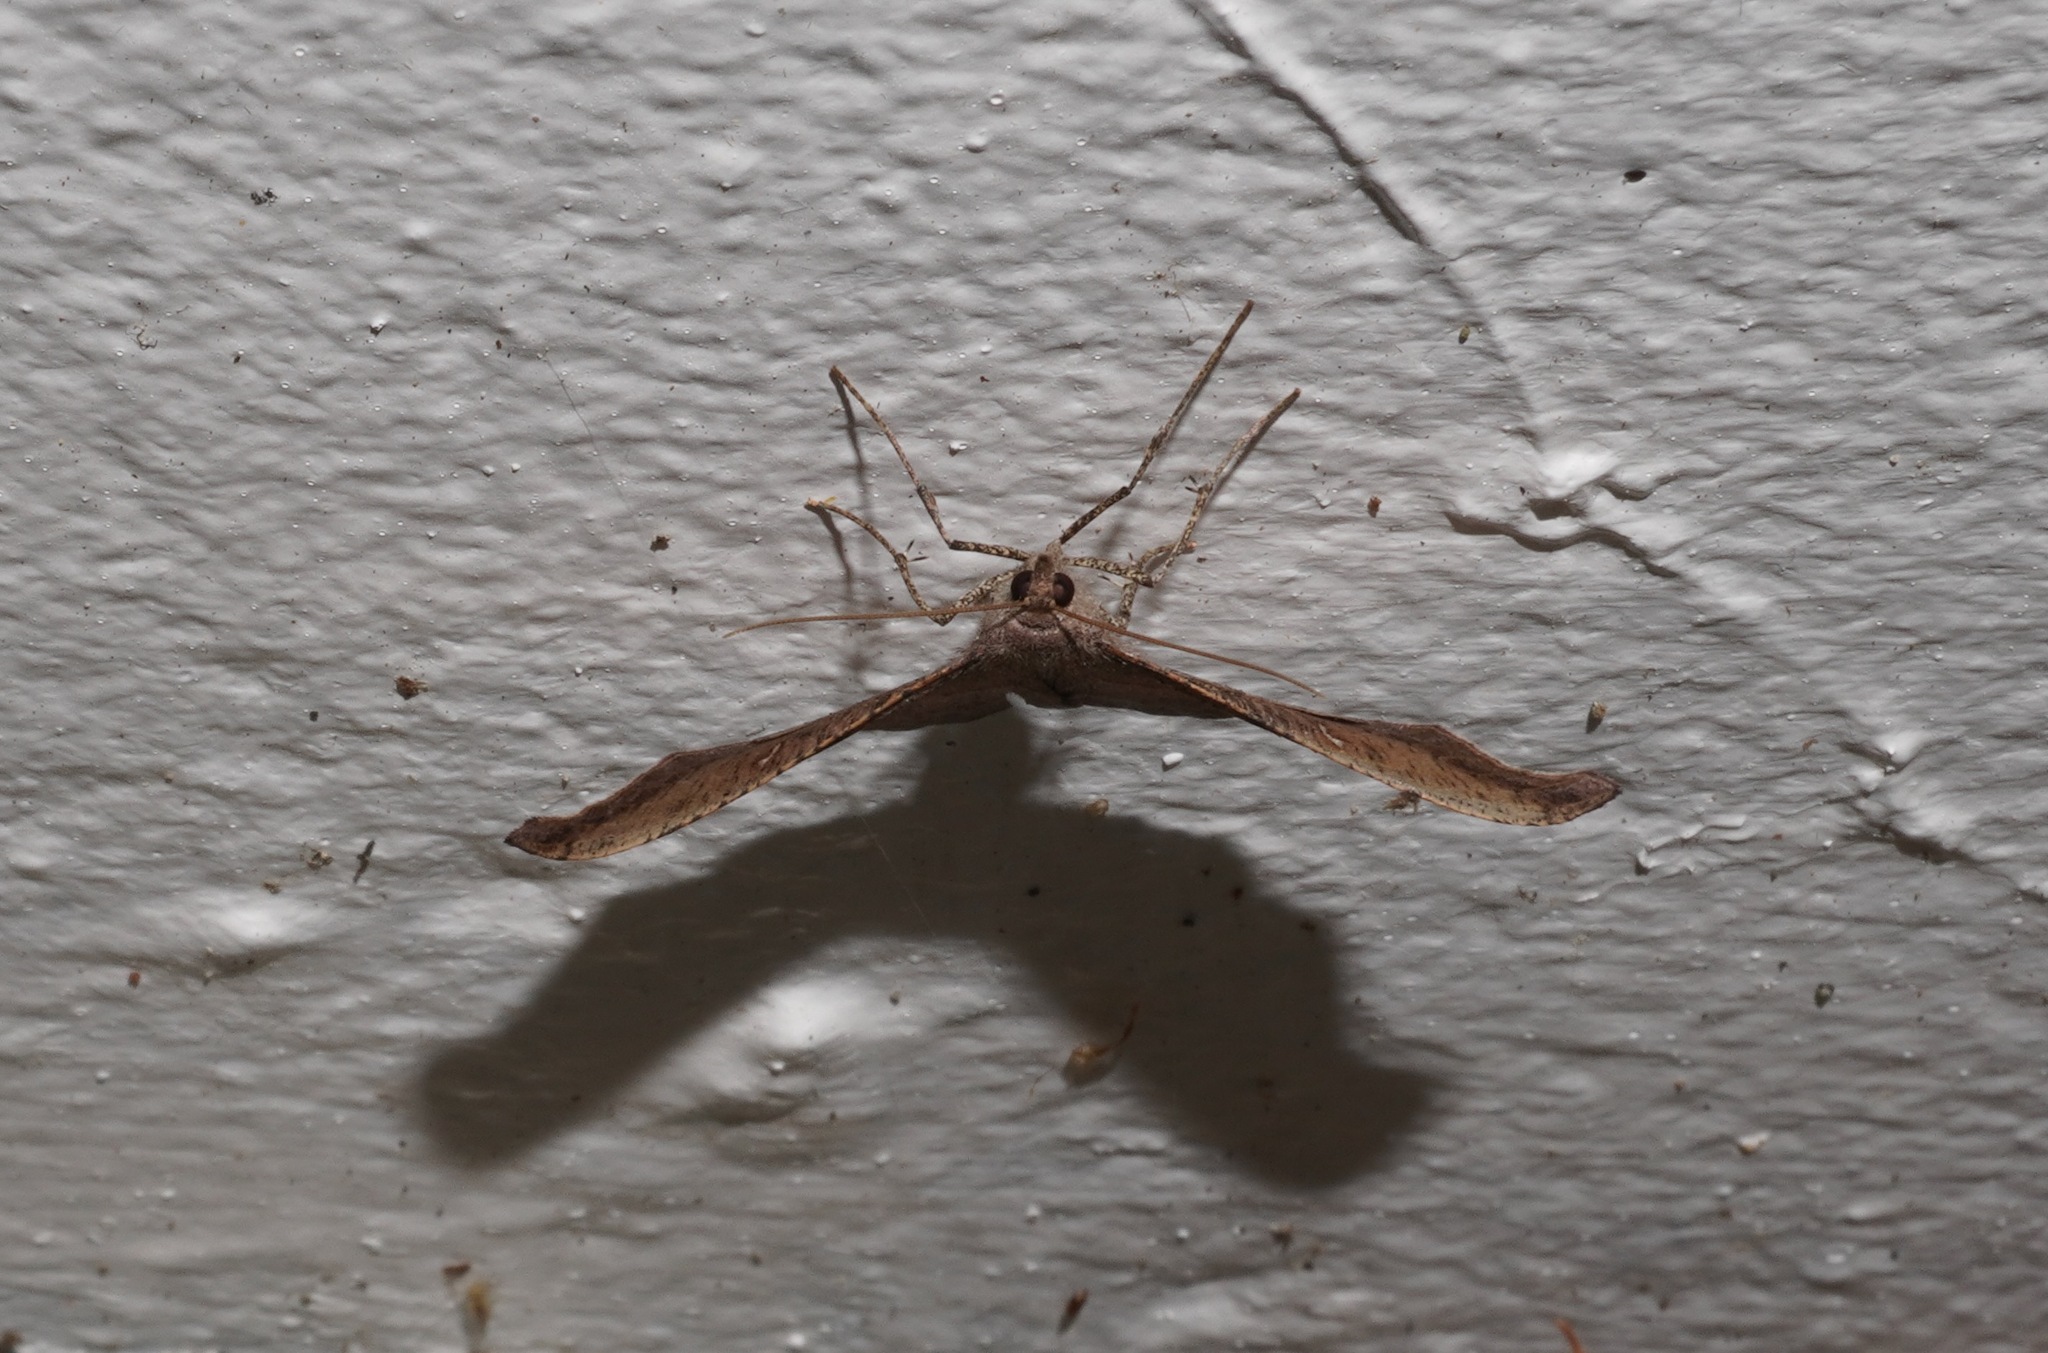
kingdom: Animalia
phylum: Arthropoda
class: Insecta
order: Lepidoptera
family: Geometridae
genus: Sarisa
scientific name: Sarisa muriferata
